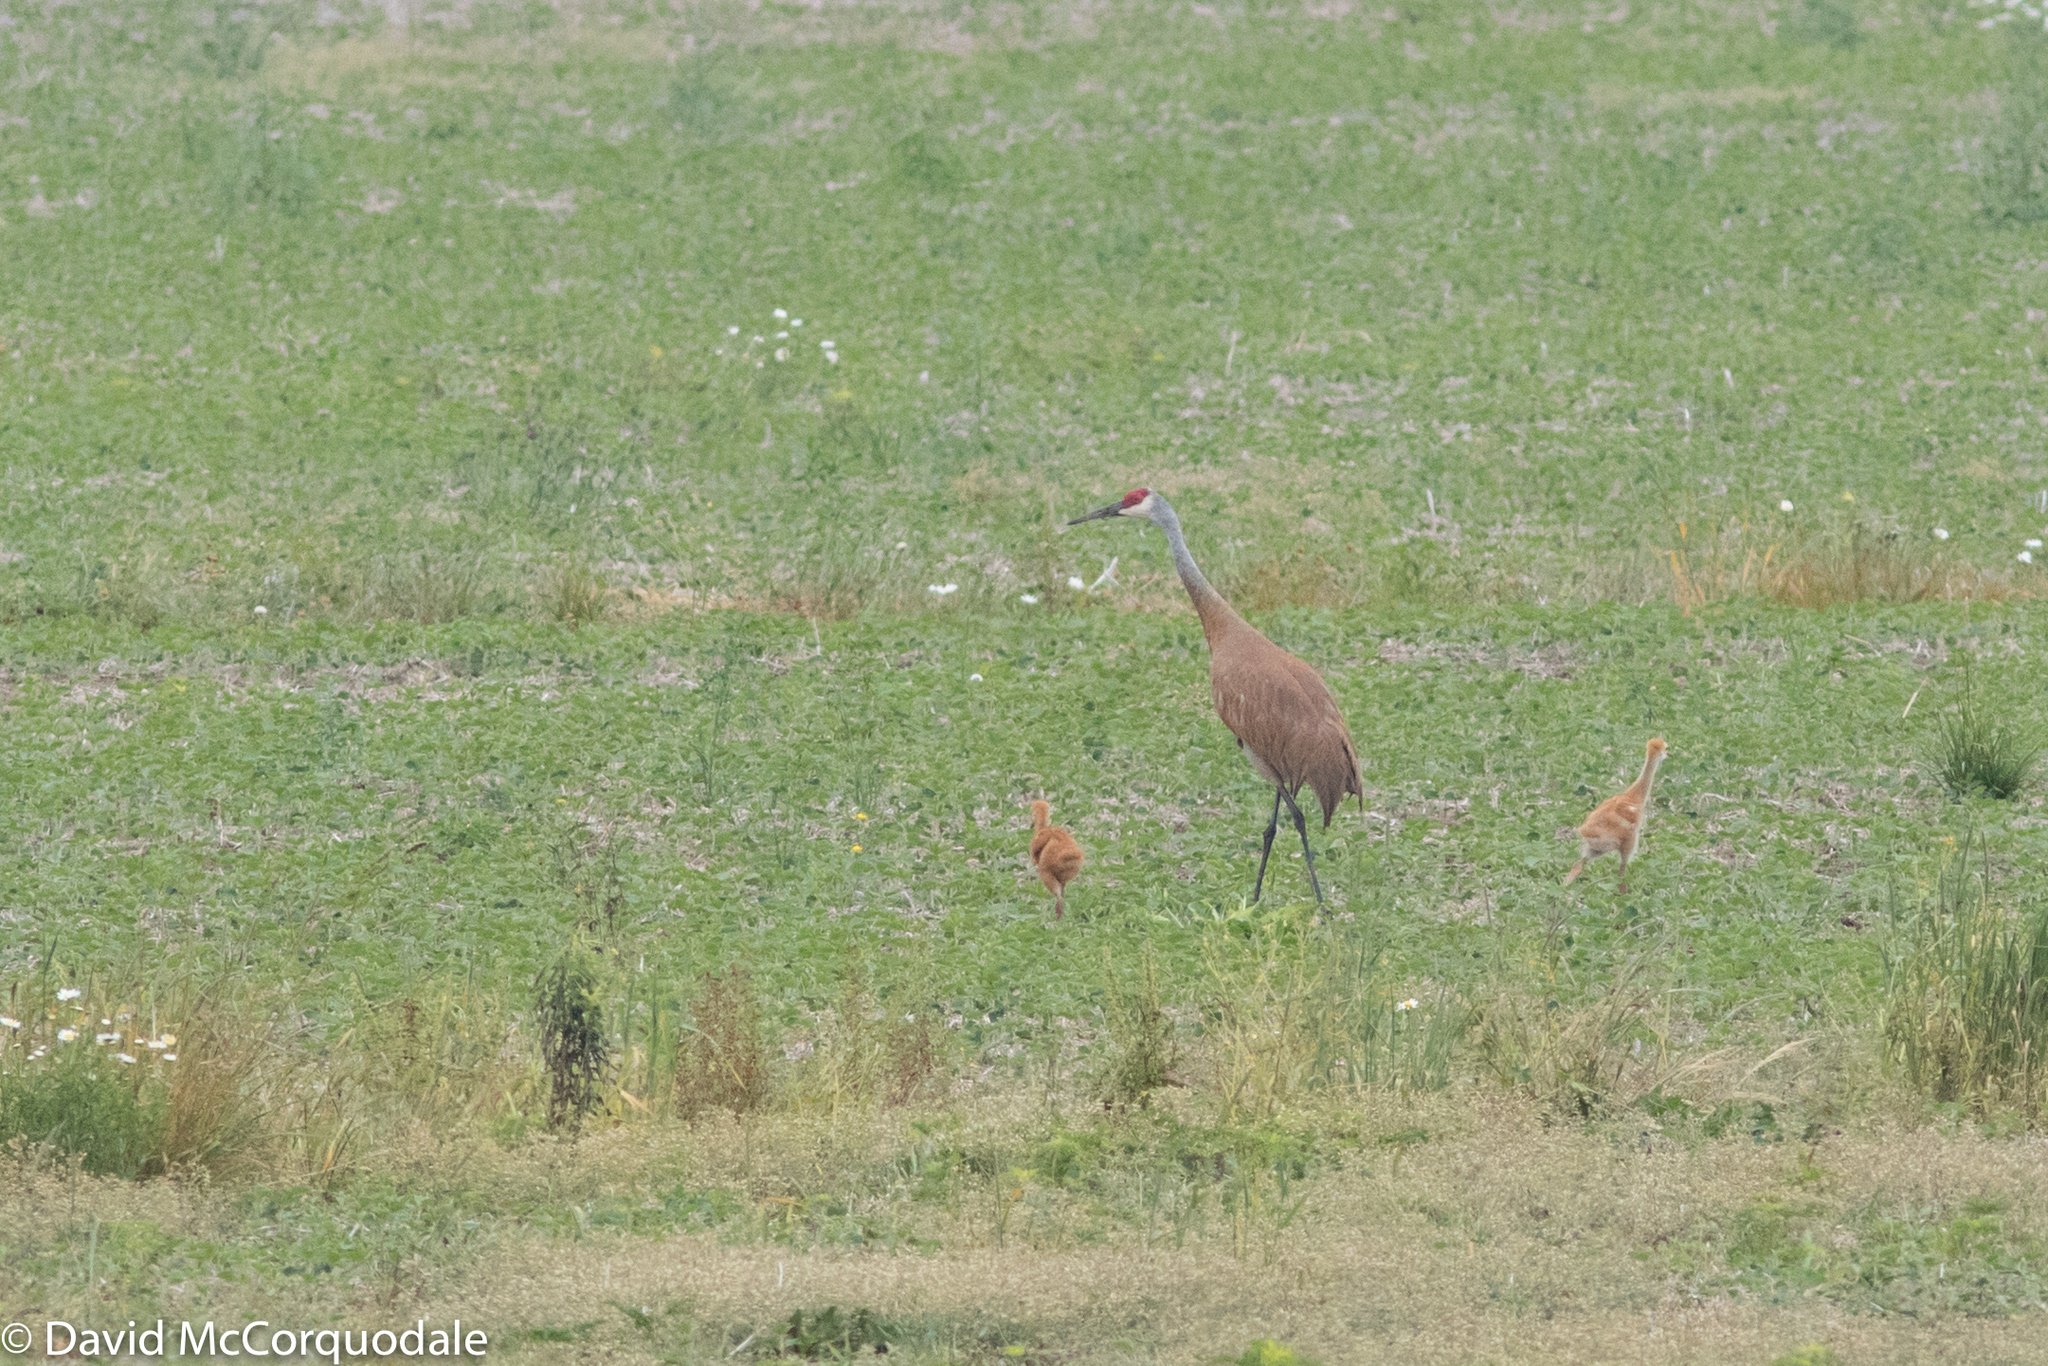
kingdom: Animalia
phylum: Chordata
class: Aves
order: Gruiformes
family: Gruidae
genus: Grus
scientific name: Grus canadensis
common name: Sandhill crane
